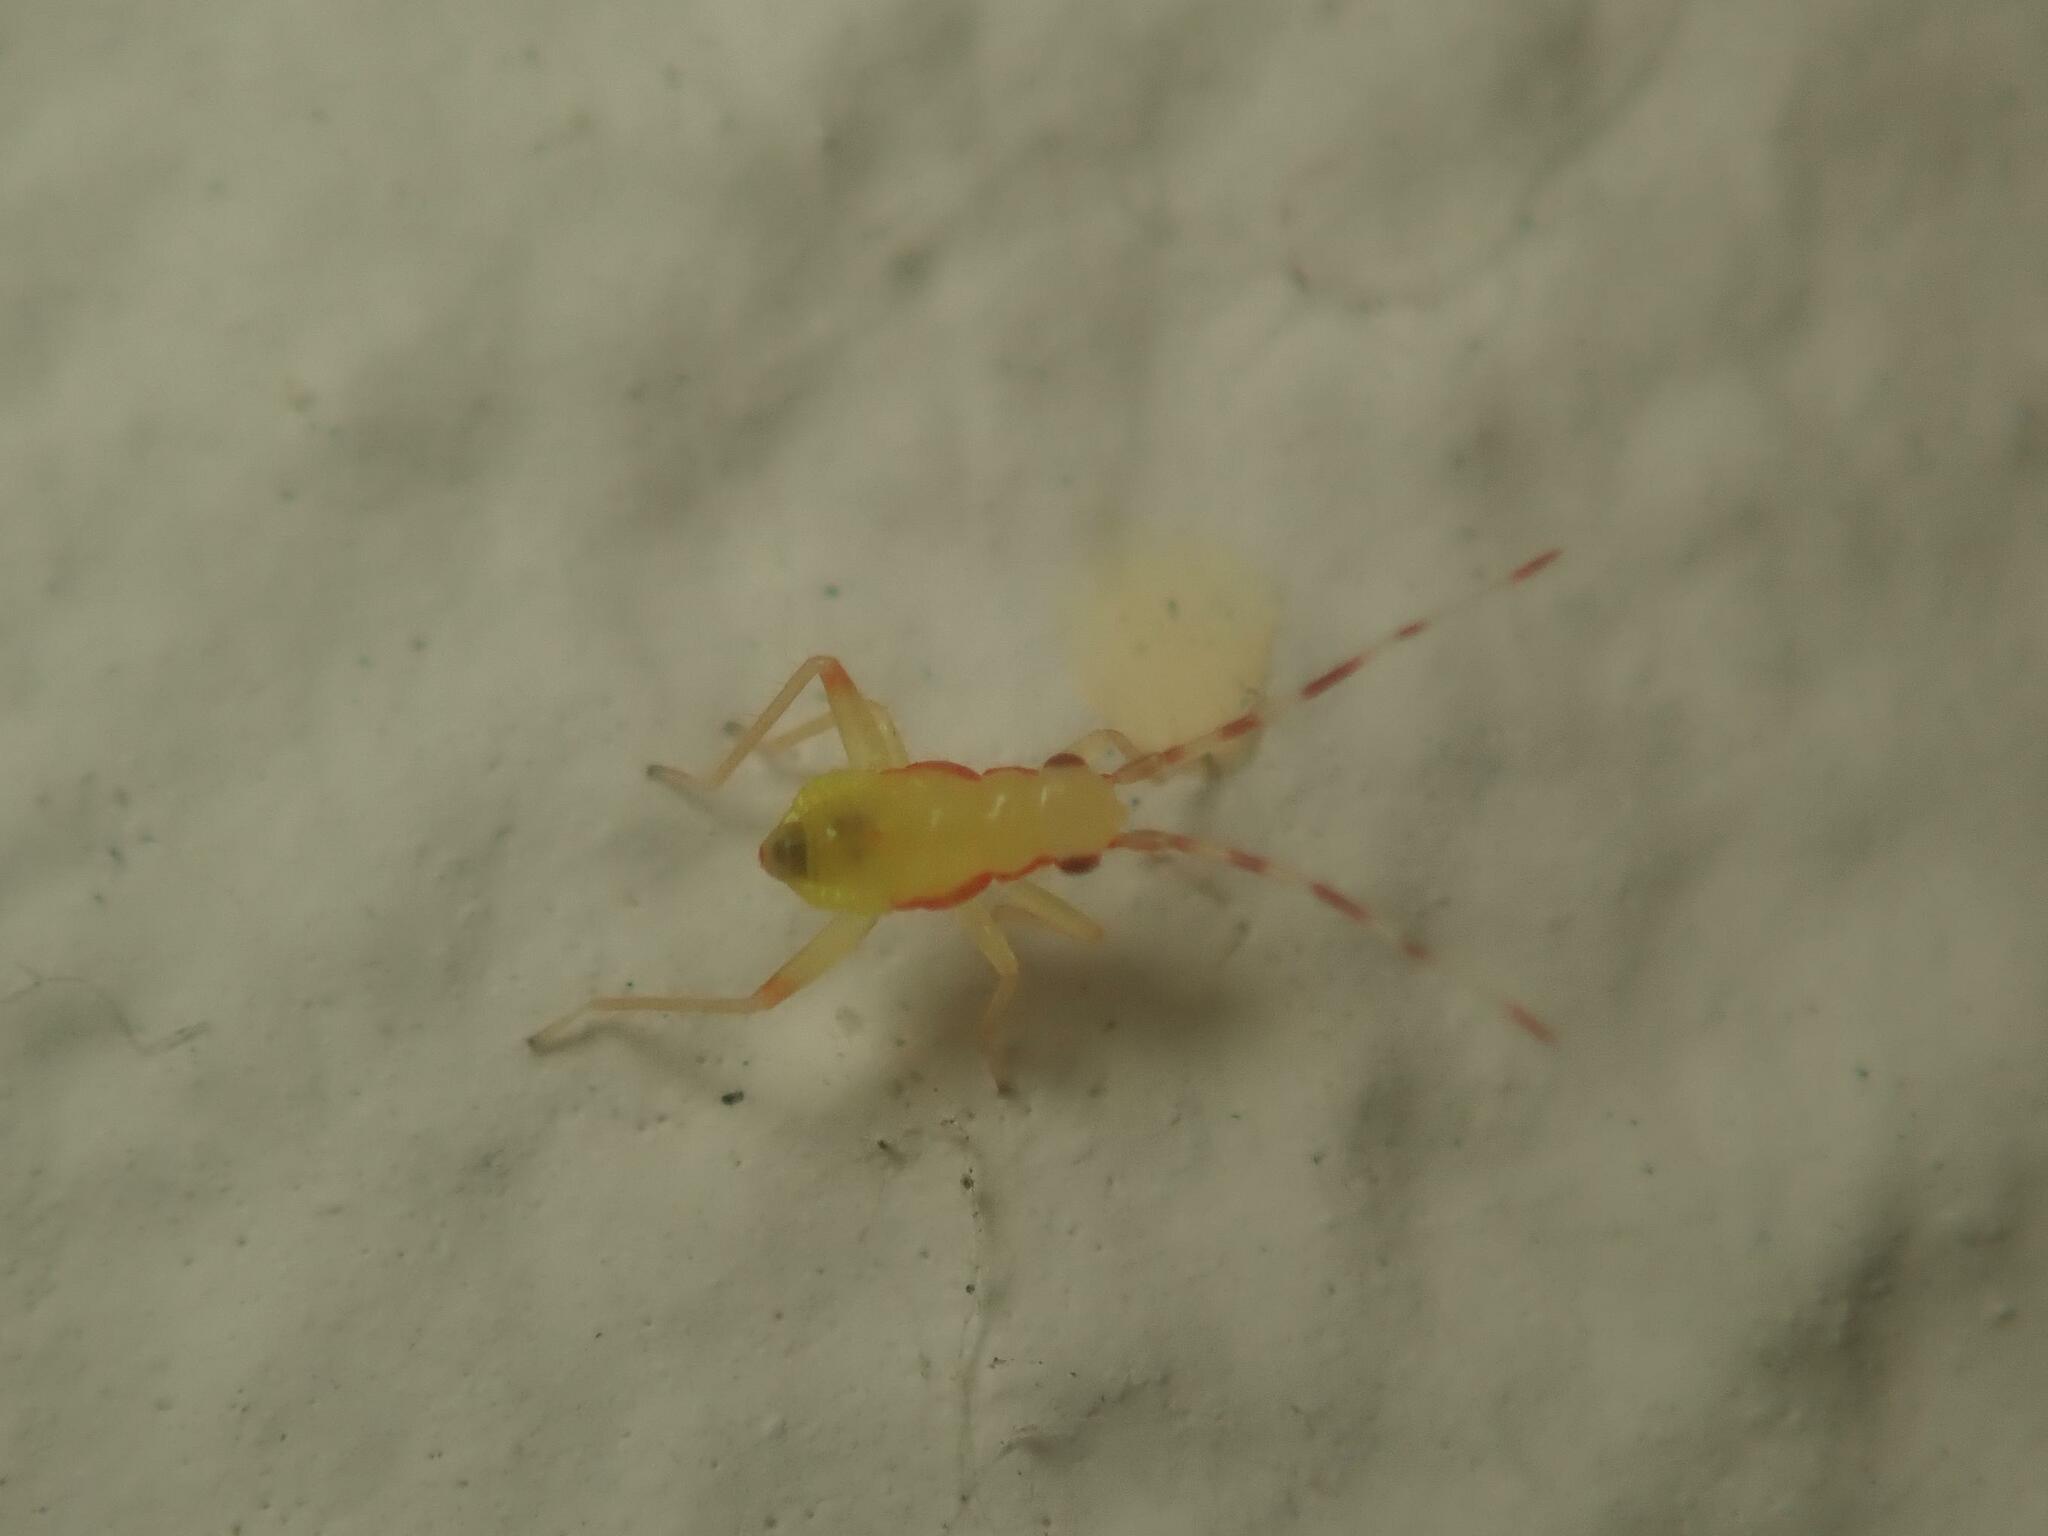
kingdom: Animalia
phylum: Arthropoda
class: Insecta
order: Hemiptera
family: Miridae
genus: Campyloneura
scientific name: Campyloneura virgula
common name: Predatory bug
